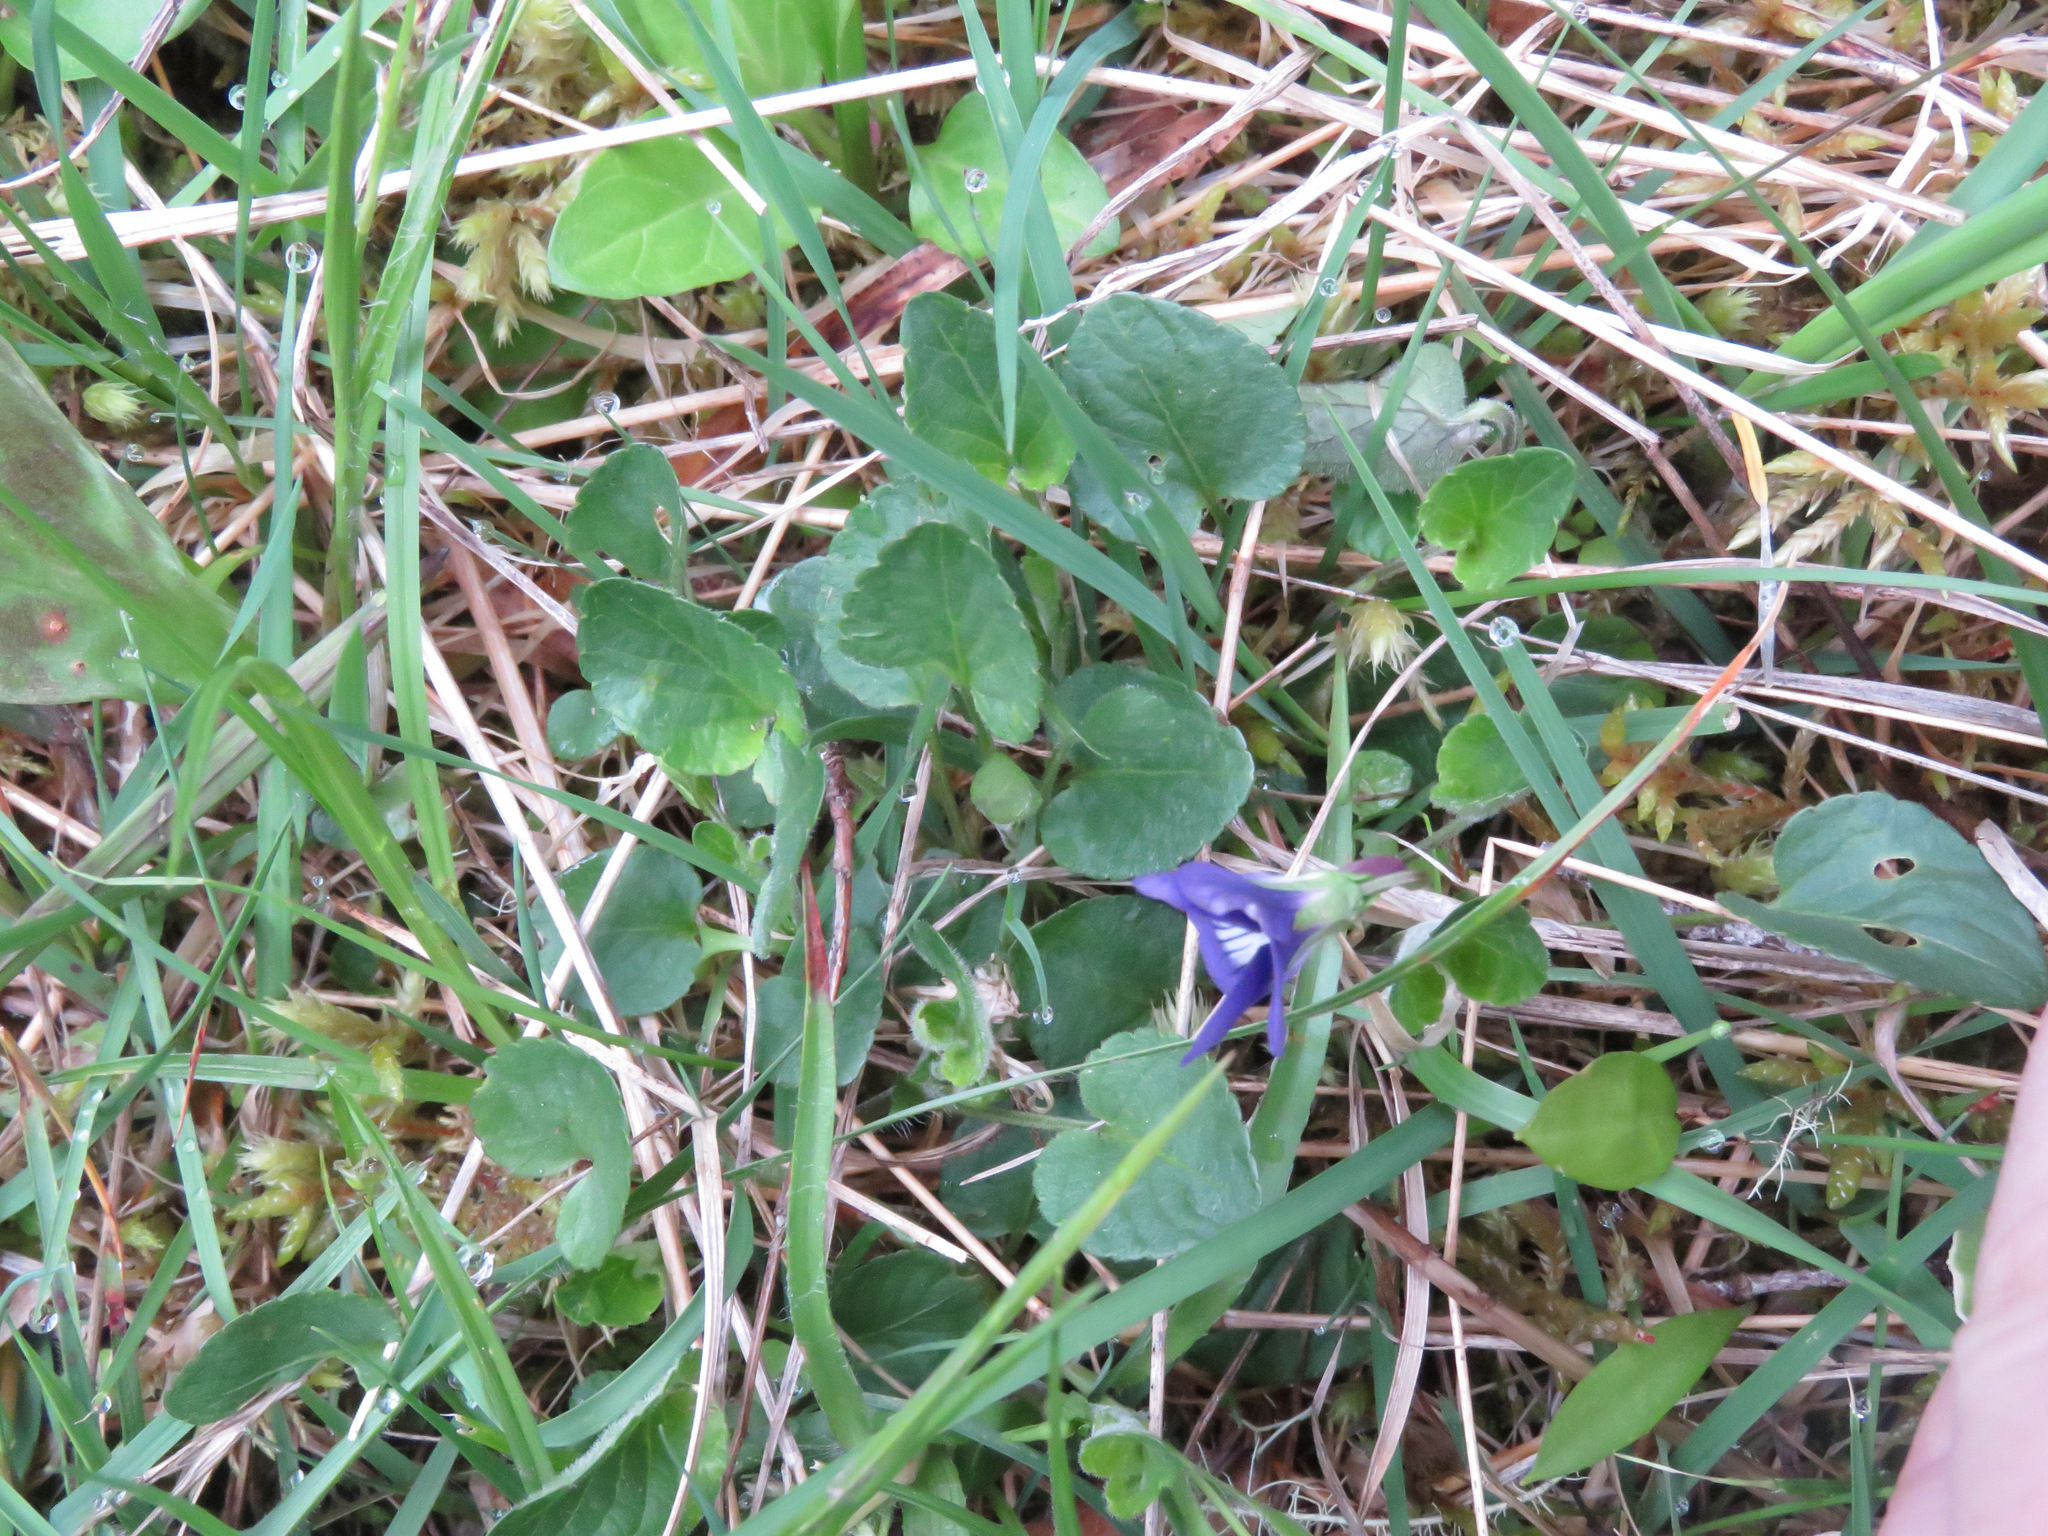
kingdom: Plantae
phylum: Tracheophyta
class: Magnoliopsida
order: Malpighiales
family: Violaceae
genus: Viola
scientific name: Viola adunca
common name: Sand violet
